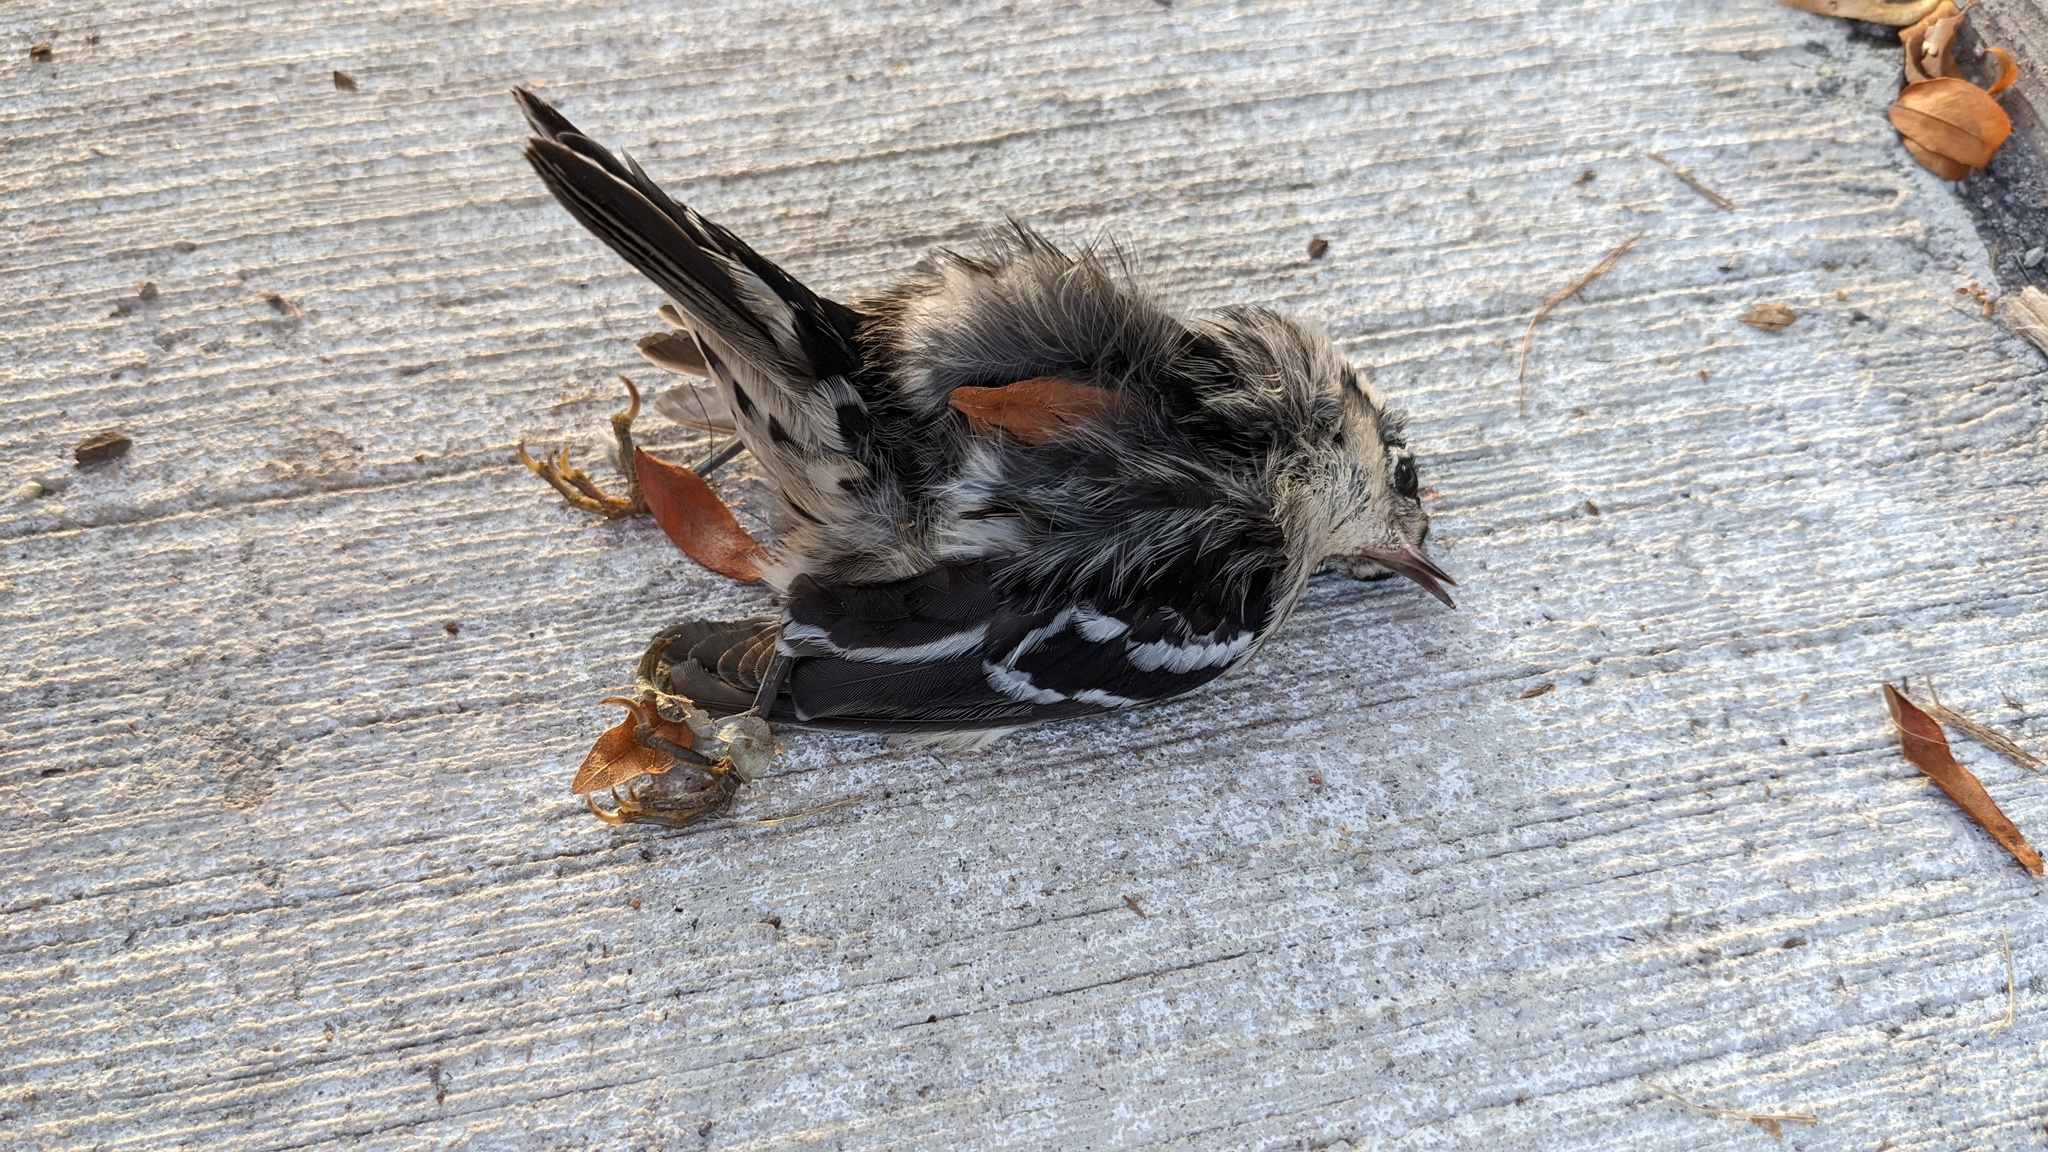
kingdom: Animalia
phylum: Chordata
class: Aves
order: Passeriformes
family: Parulidae
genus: Mniotilta
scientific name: Mniotilta varia
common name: Black-and-white warbler
